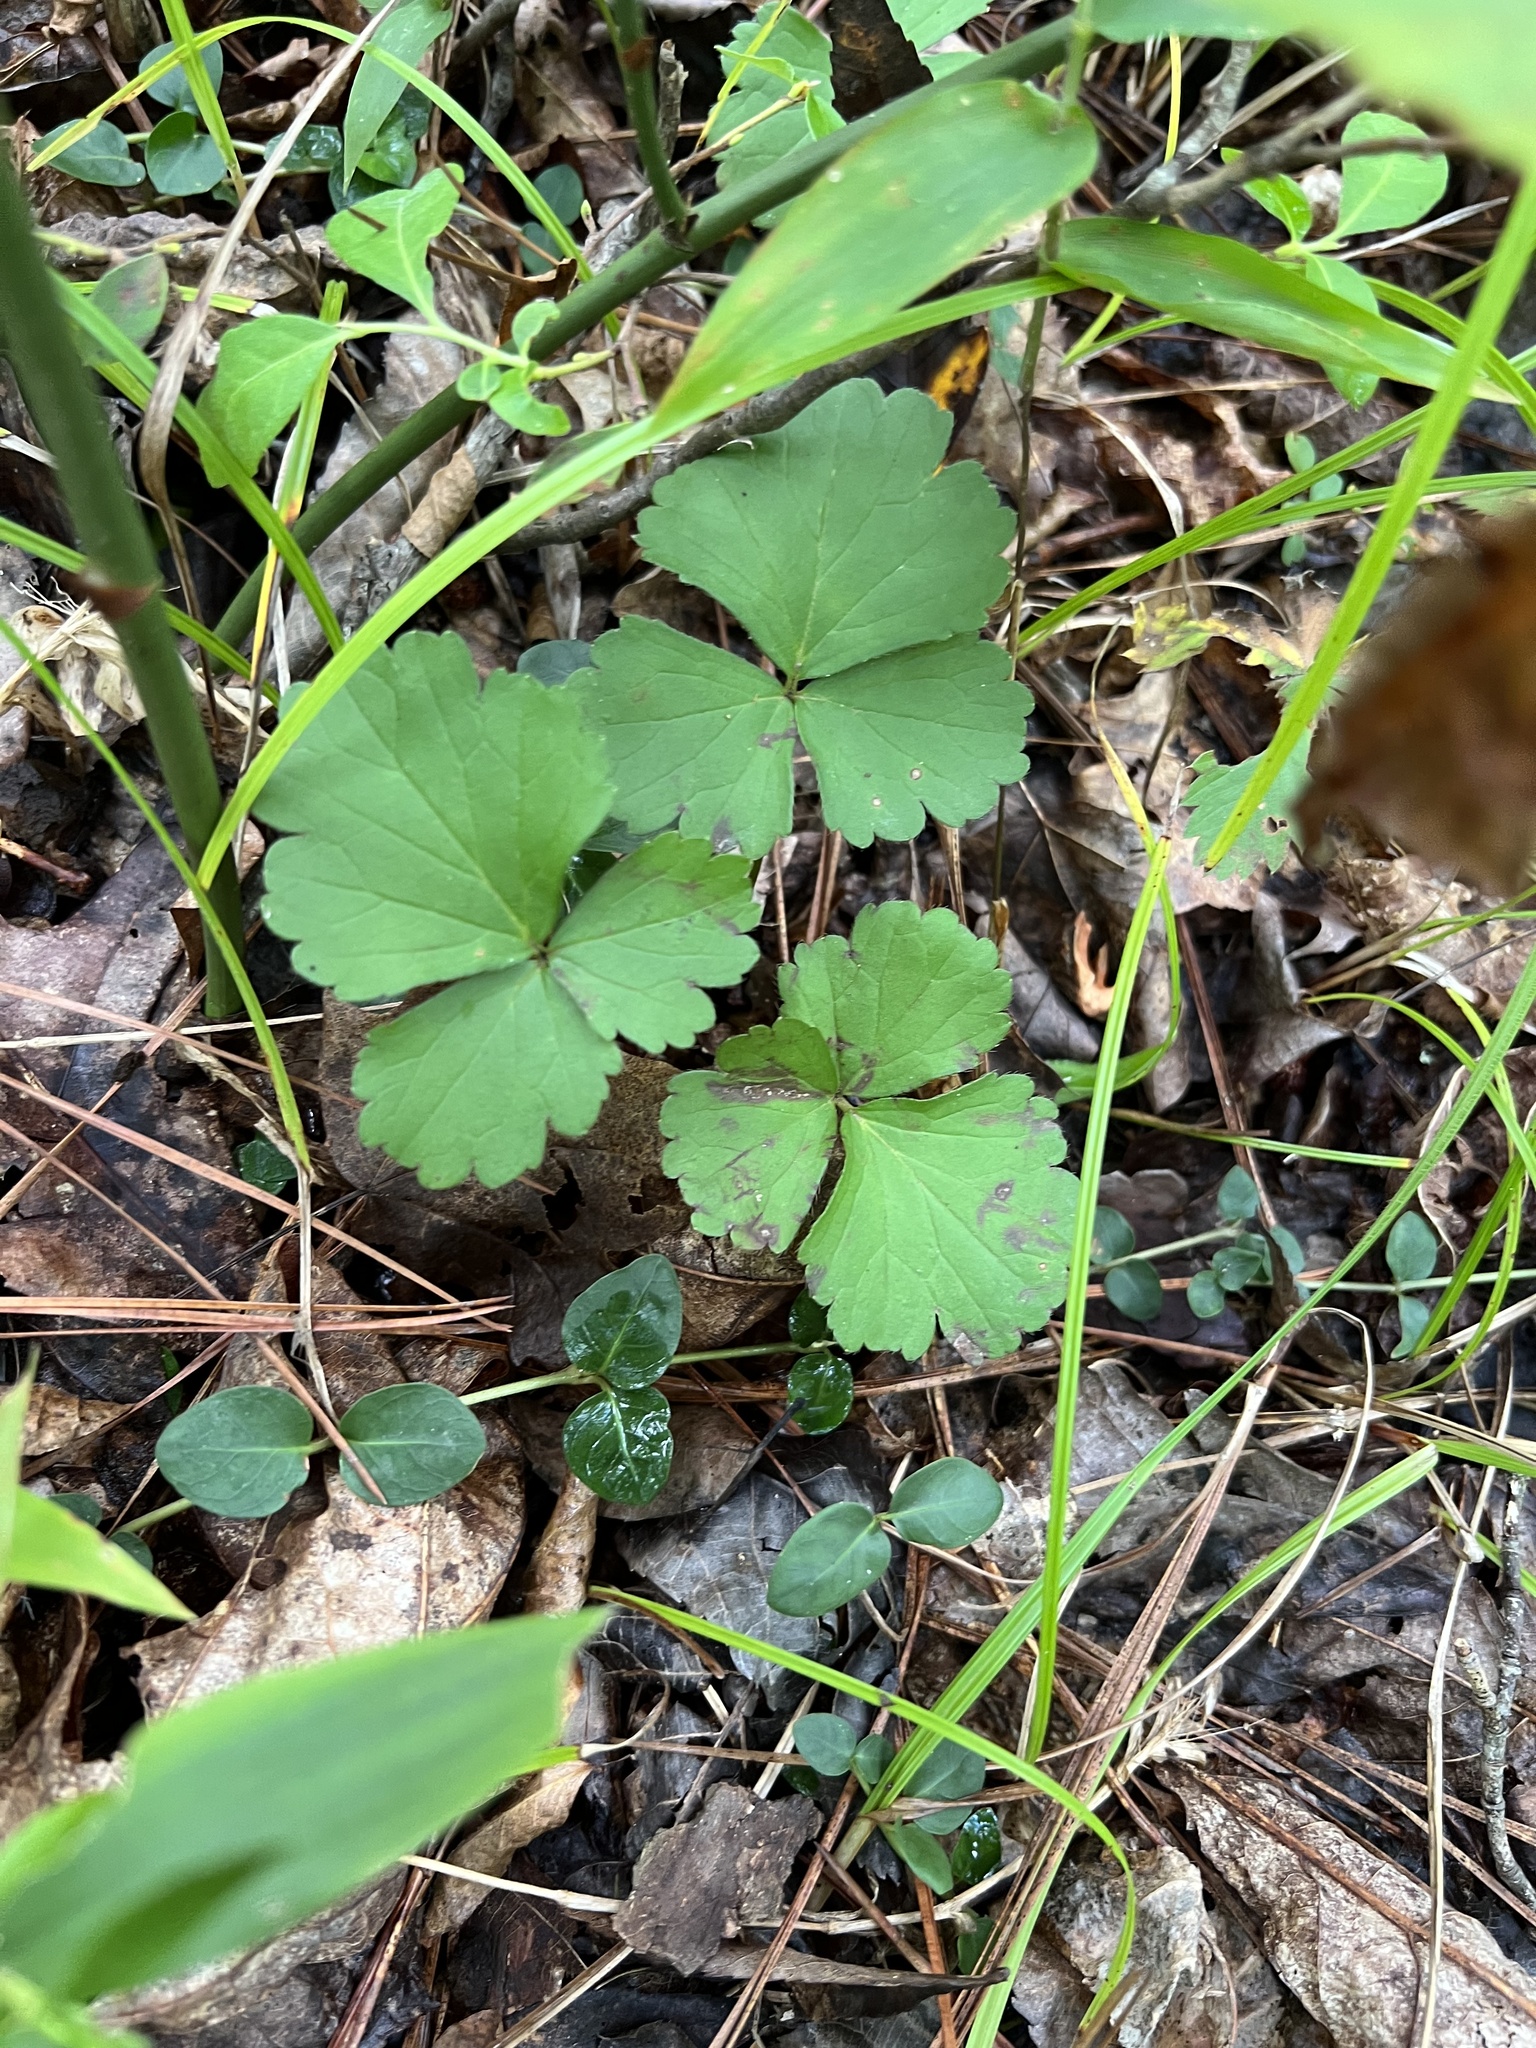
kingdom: Plantae
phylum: Tracheophyta
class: Magnoliopsida
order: Rosales
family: Rosaceae
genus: Geum
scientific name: Geum fragarioides
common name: Appalachian barren strawberry
